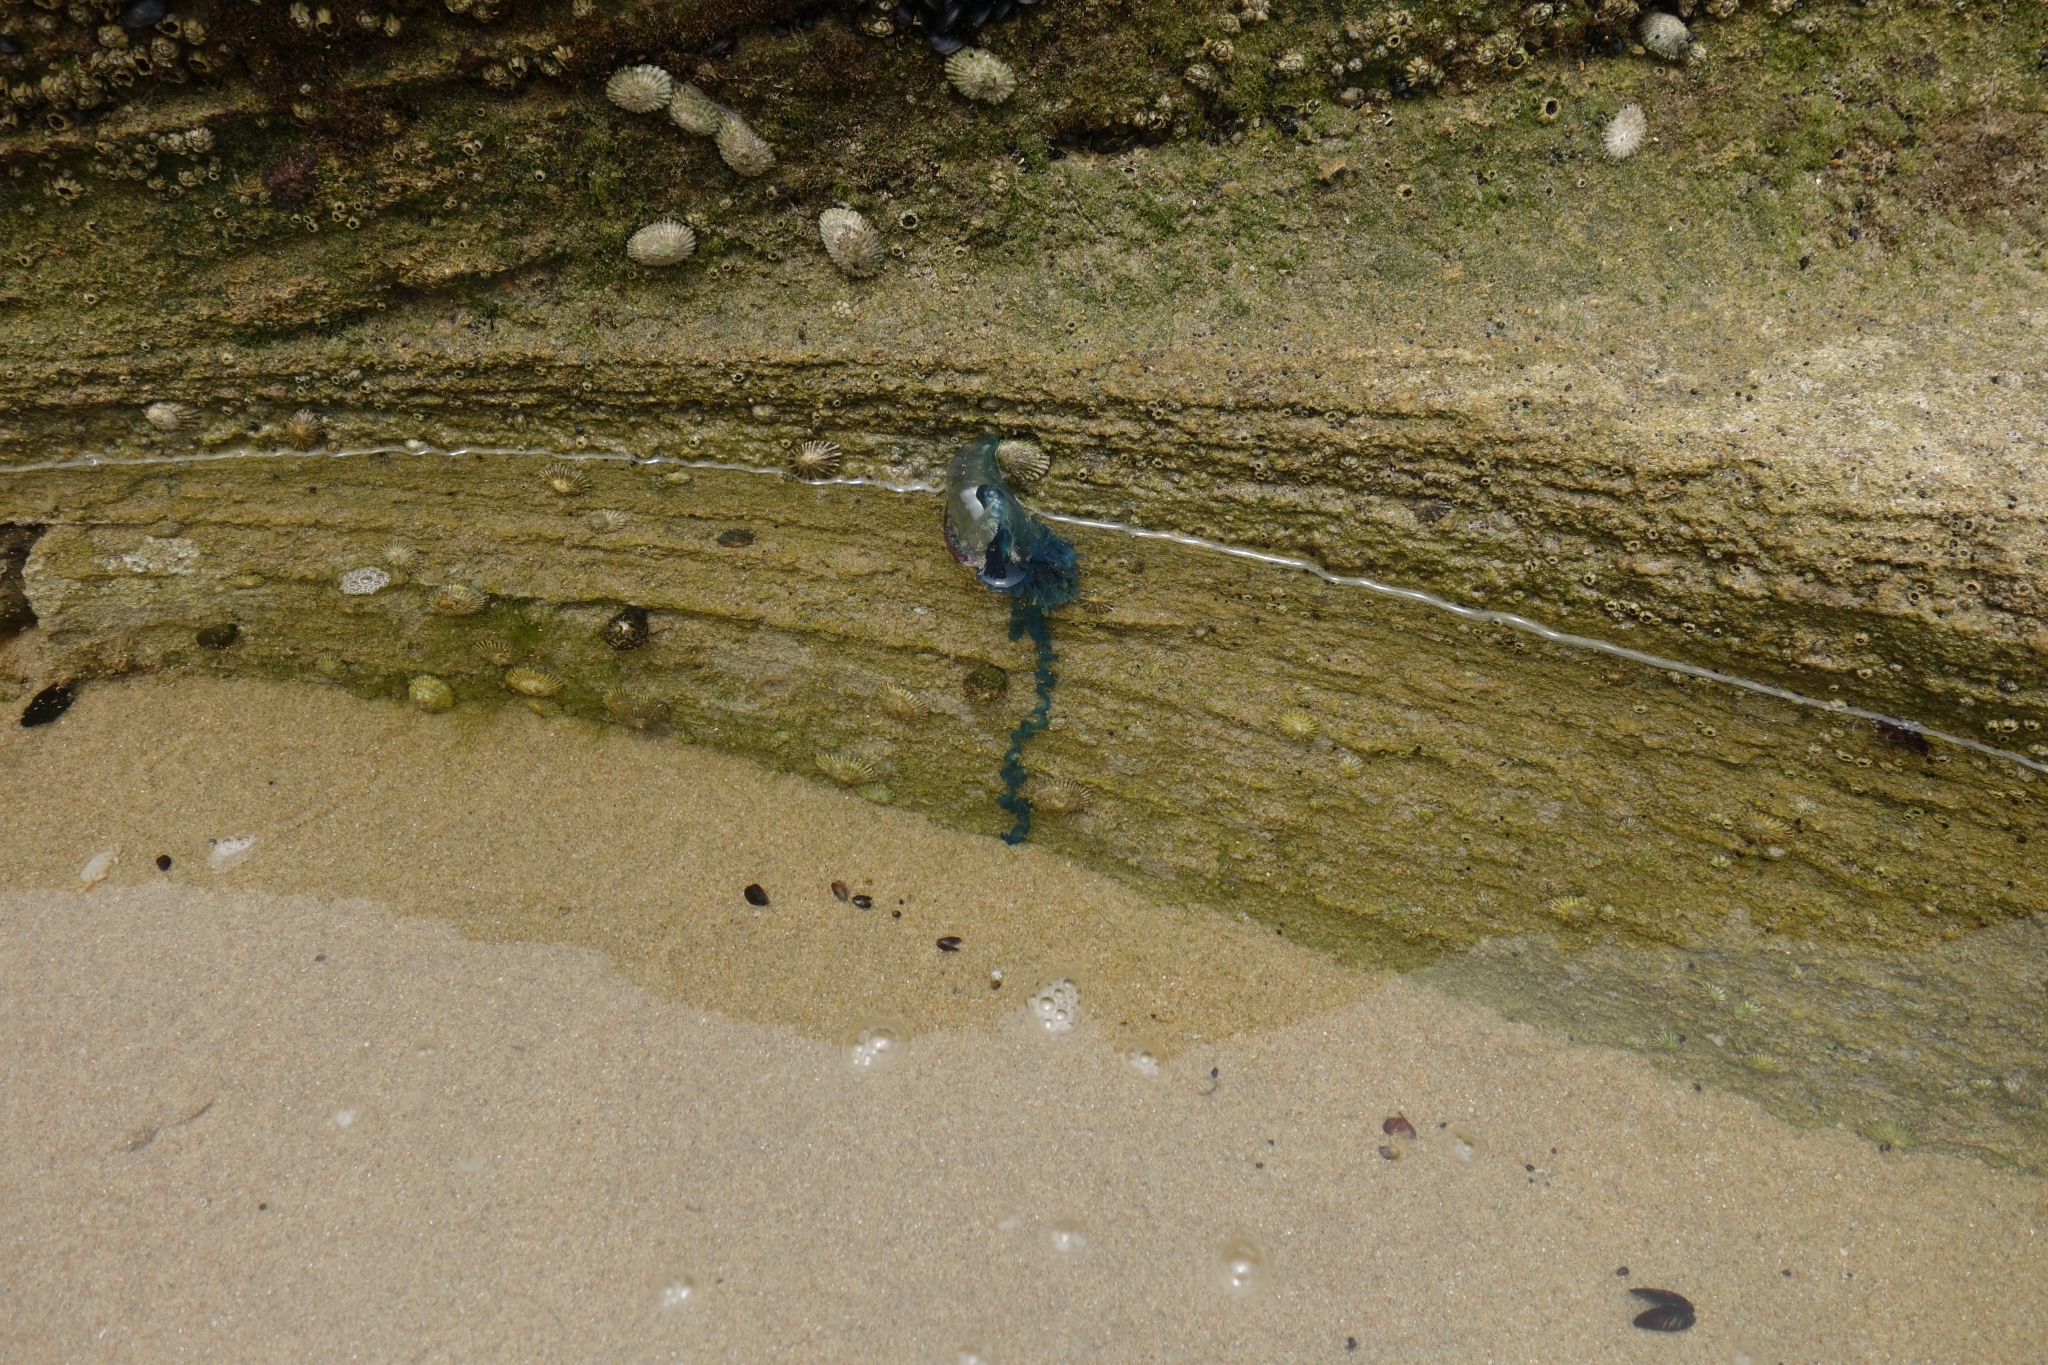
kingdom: Animalia
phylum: Cnidaria
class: Hydrozoa
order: Siphonophorae
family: Physaliidae
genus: Physalia
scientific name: Physalia physalis
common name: Portuguese man-of-war
